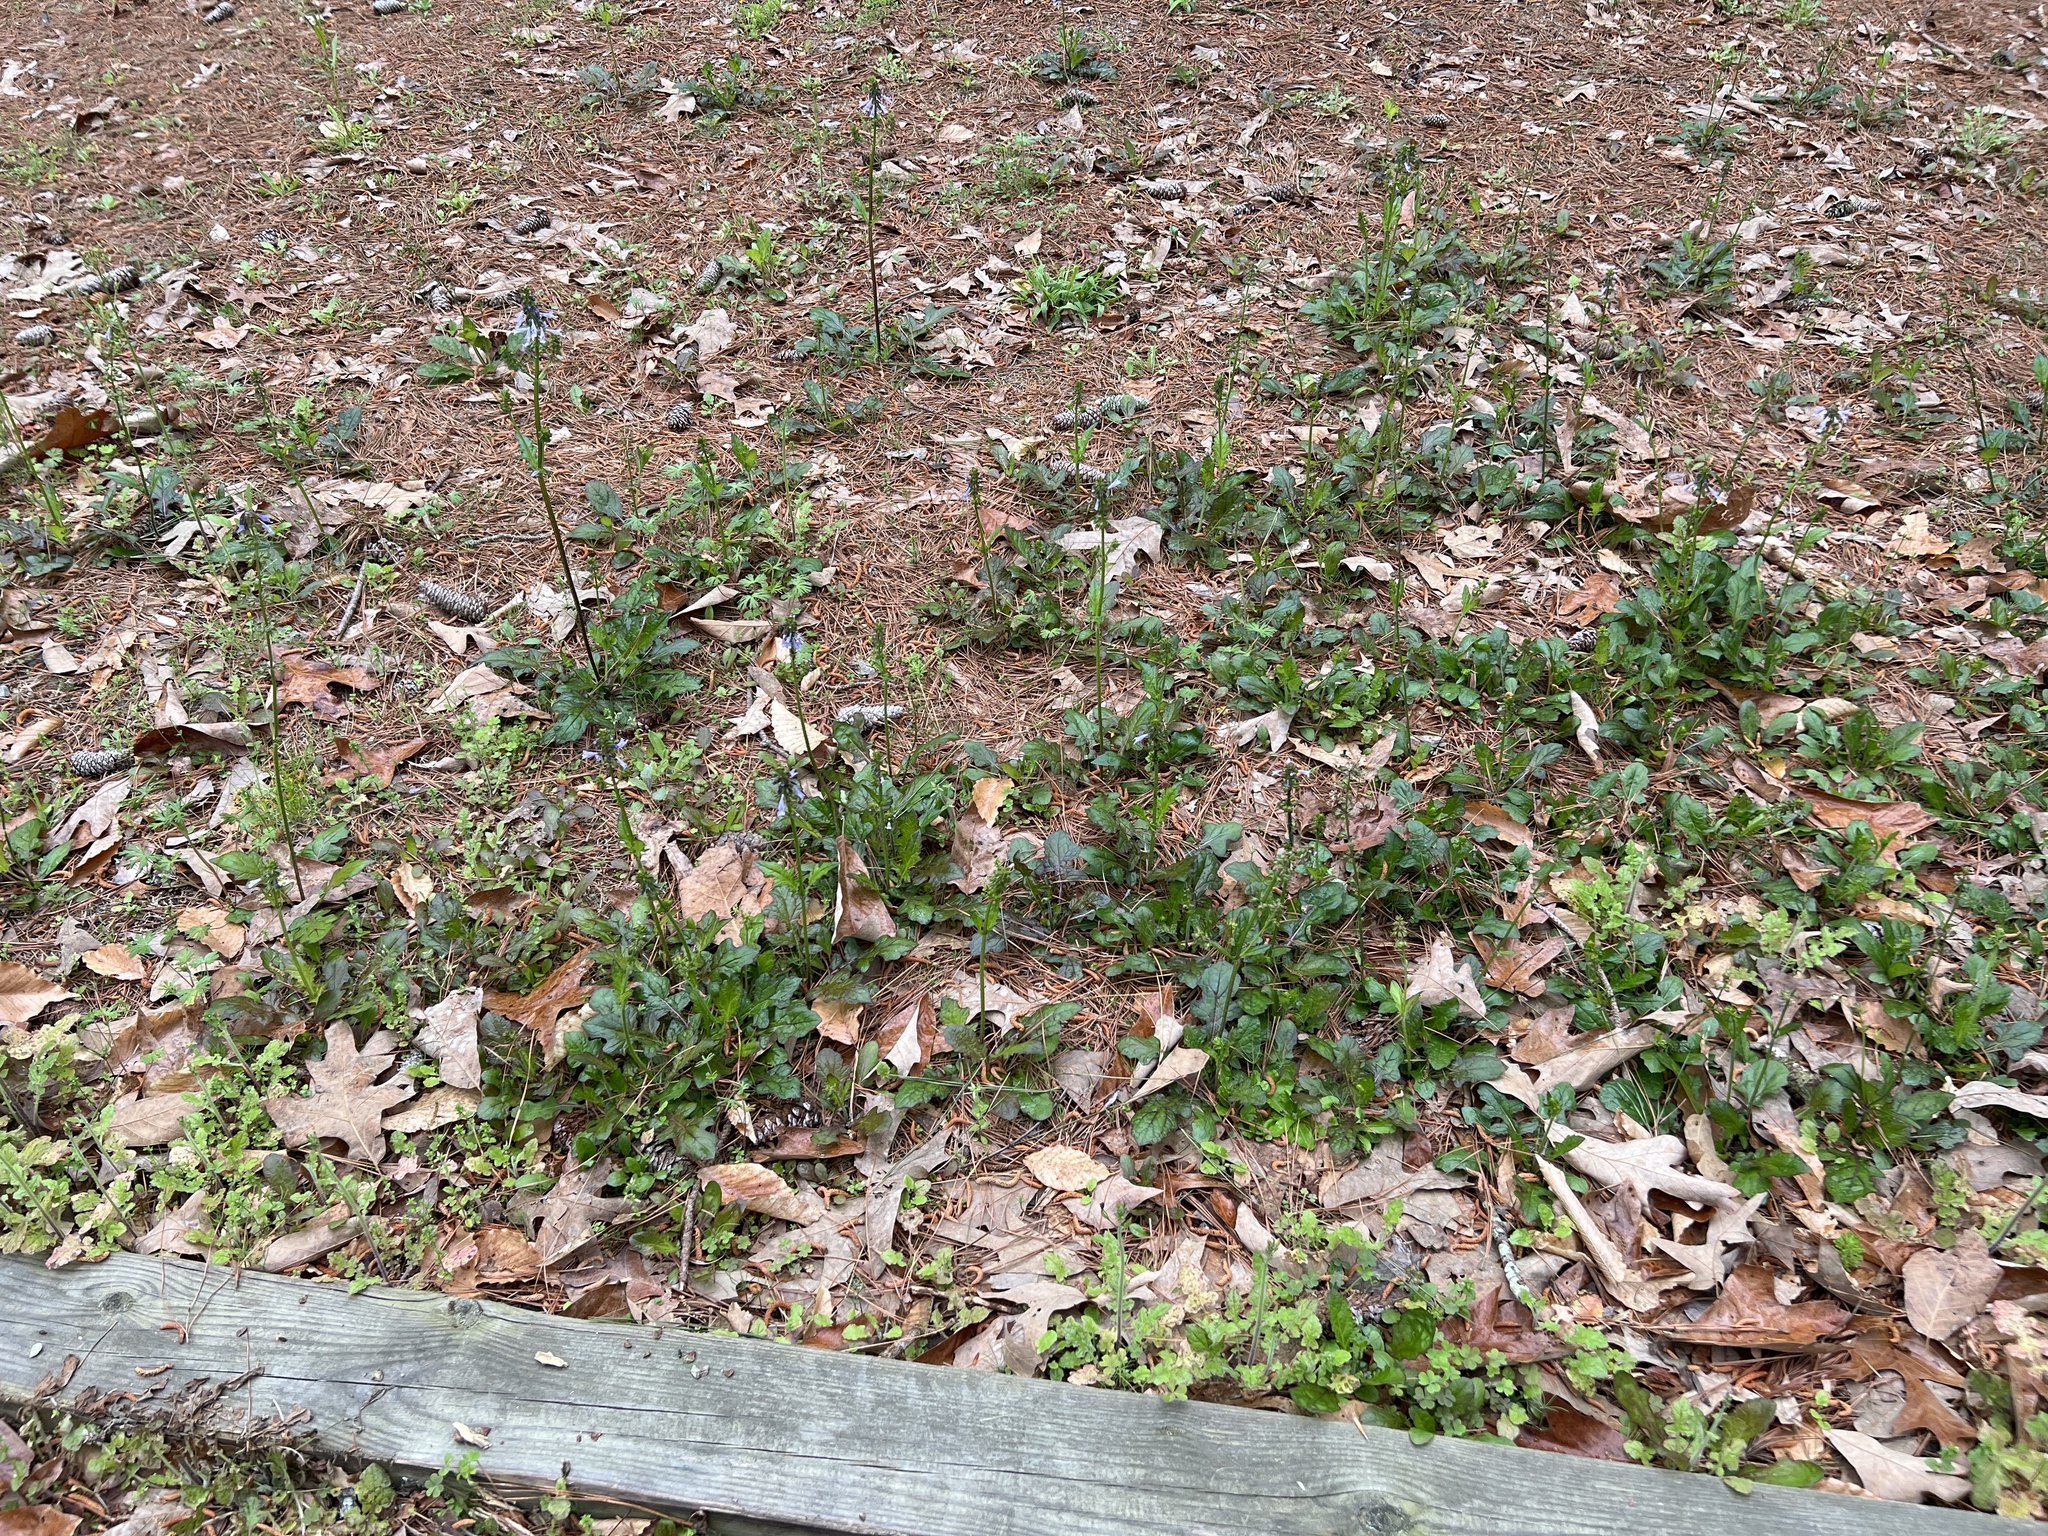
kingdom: Plantae
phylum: Tracheophyta
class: Magnoliopsida
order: Lamiales
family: Lamiaceae
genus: Salvia
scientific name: Salvia lyrata
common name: Cancerweed
